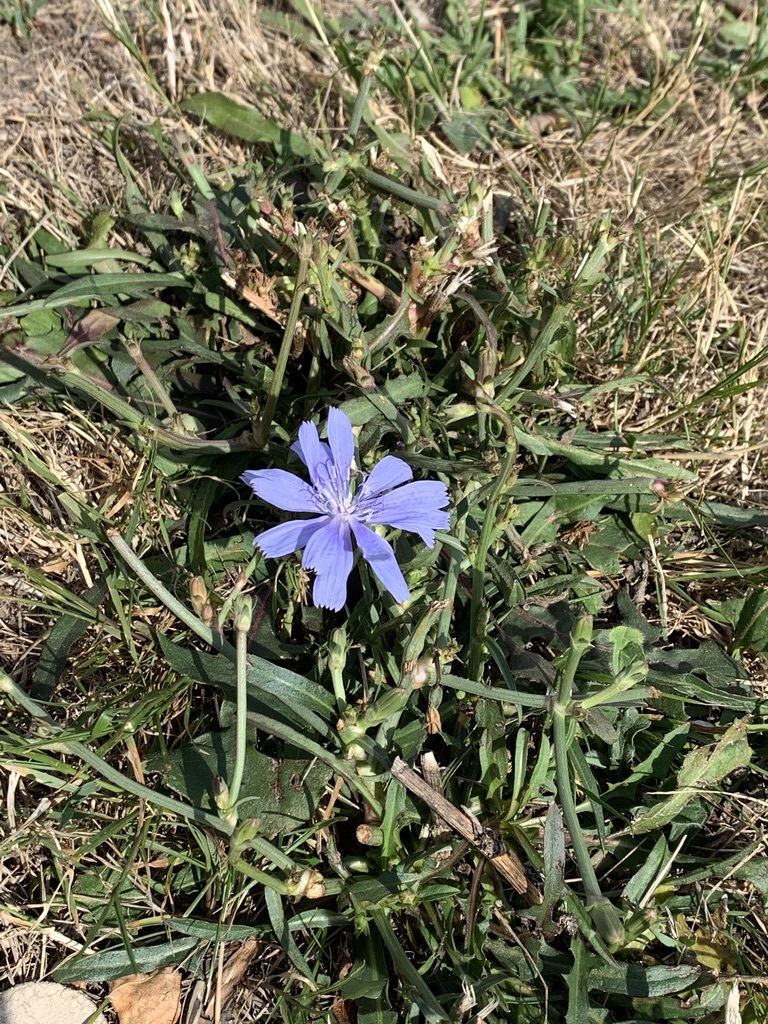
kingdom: Plantae
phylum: Tracheophyta
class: Magnoliopsida
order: Asterales
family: Asteraceae
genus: Cichorium
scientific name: Cichorium intybus
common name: Chicory
